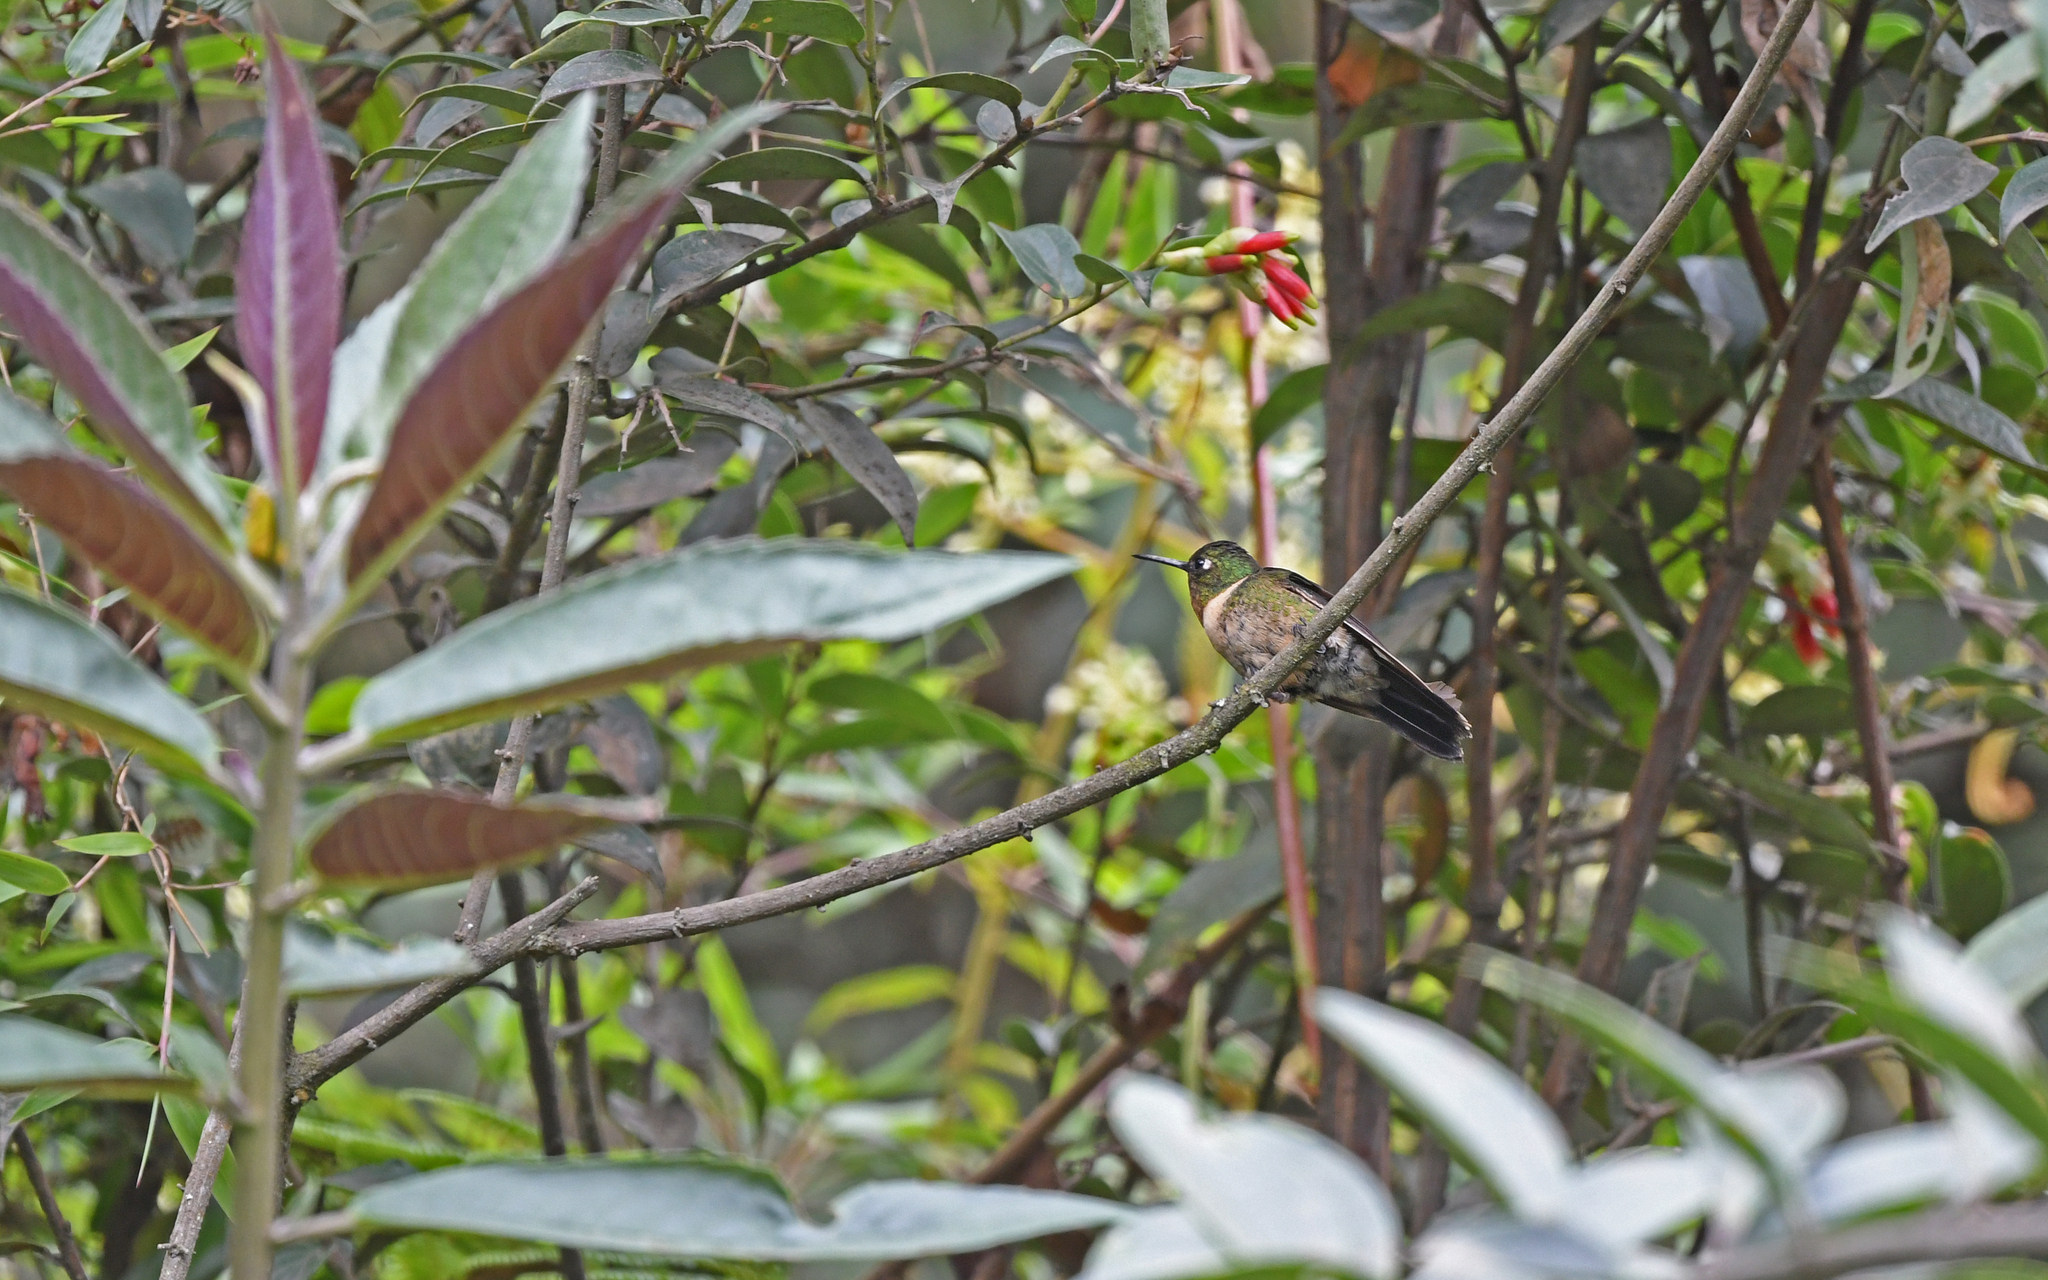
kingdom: Animalia
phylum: Chordata
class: Aves
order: Apodiformes
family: Trochilidae
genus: Heliangelus
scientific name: Heliangelus amethysticollis
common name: Amethyst-throated sunangel
